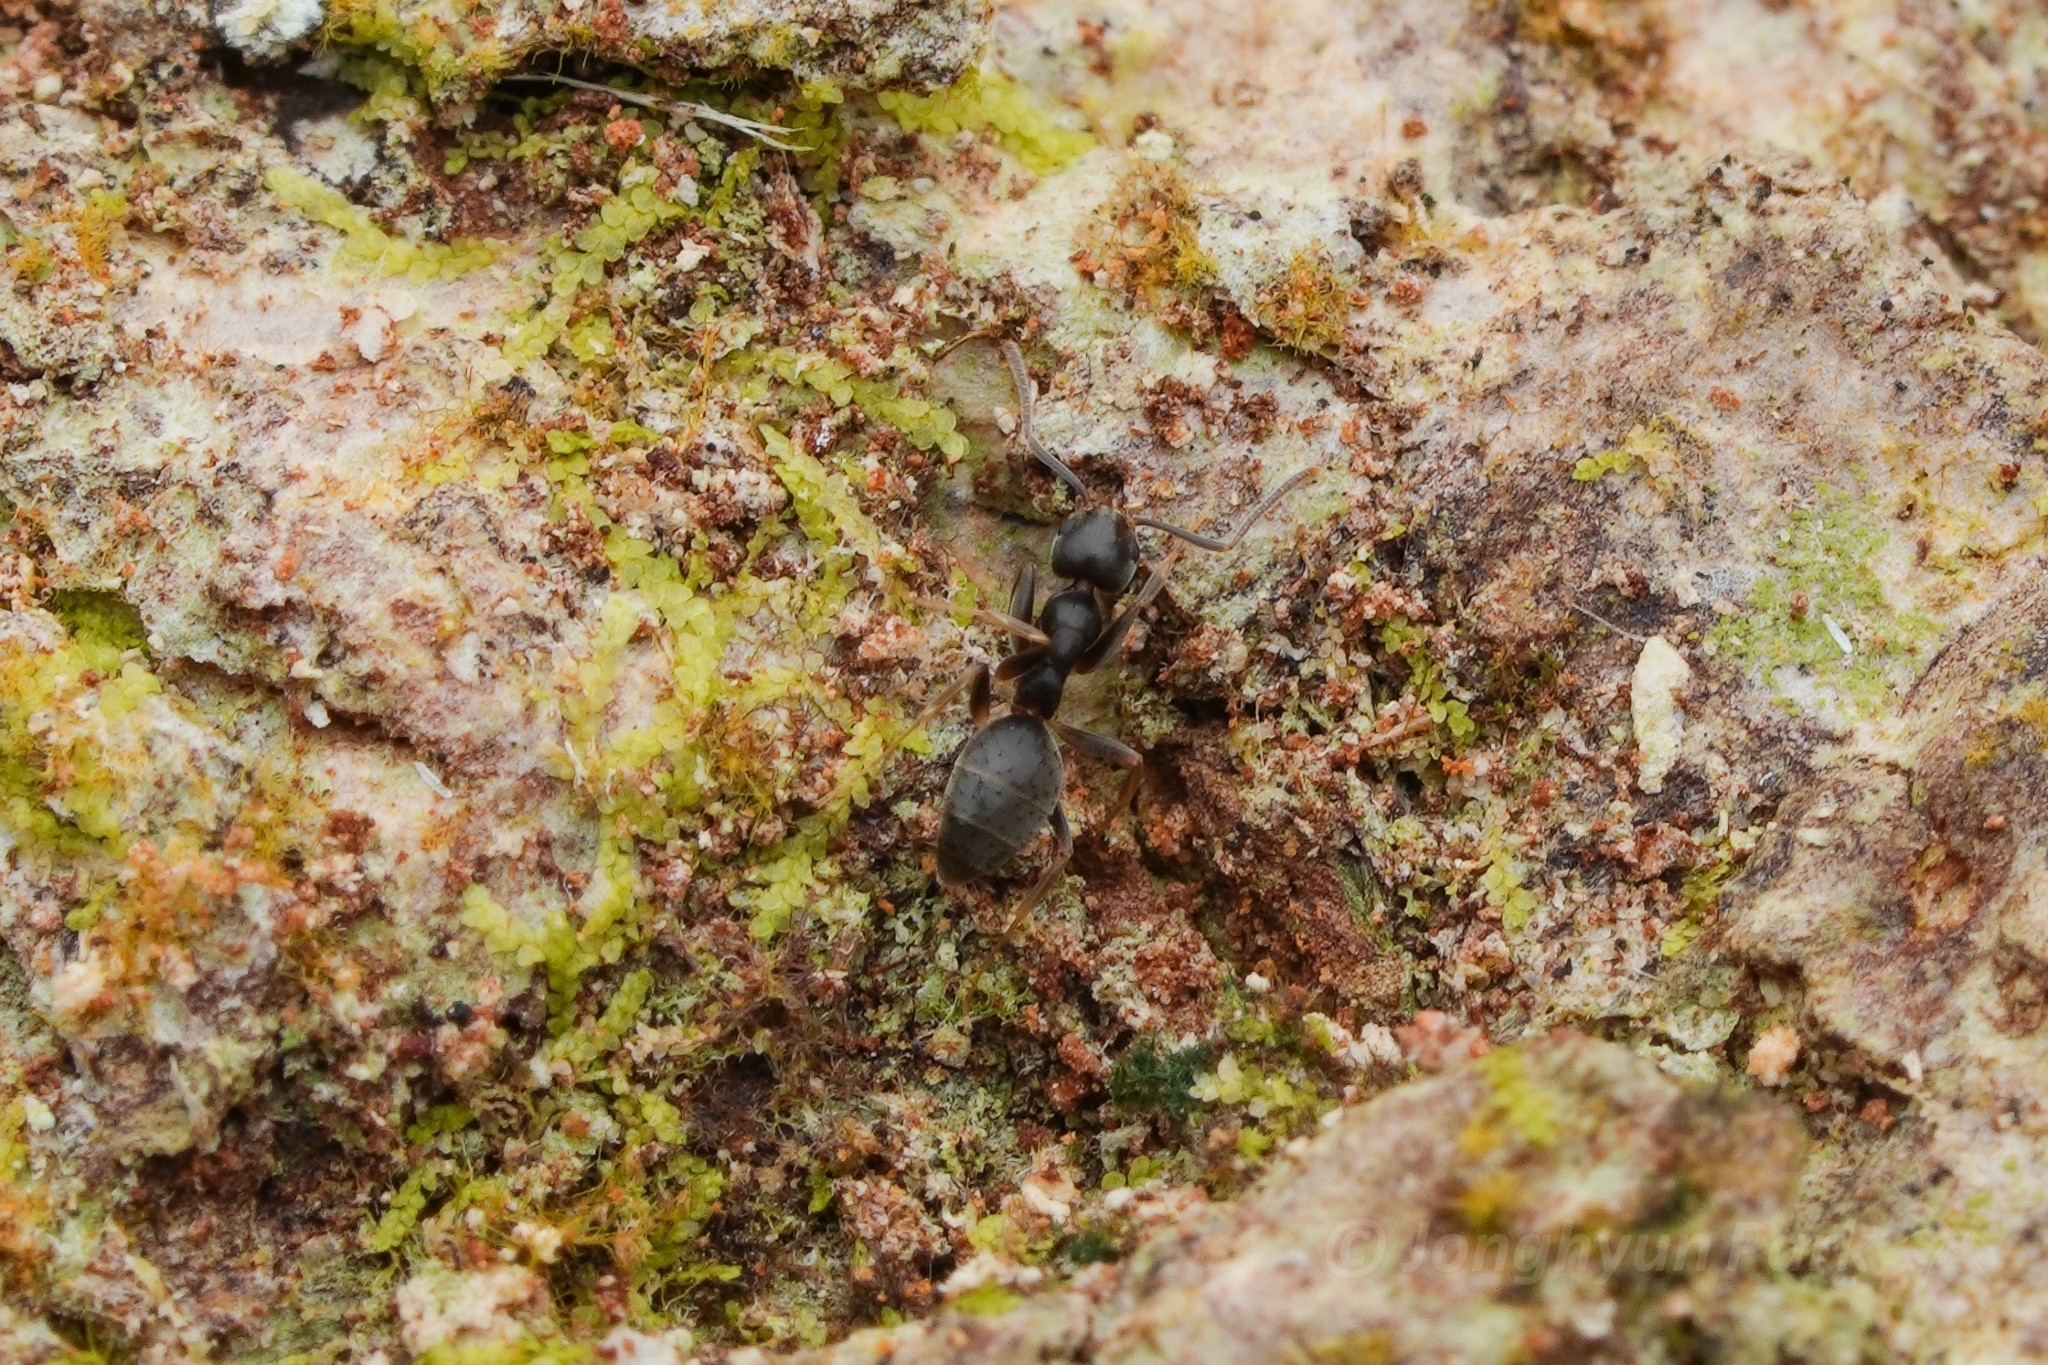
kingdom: Animalia
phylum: Arthropoda
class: Insecta
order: Hymenoptera
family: Formicidae
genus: Technomyrmex
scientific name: Technomyrmex vitiensis
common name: Ant
